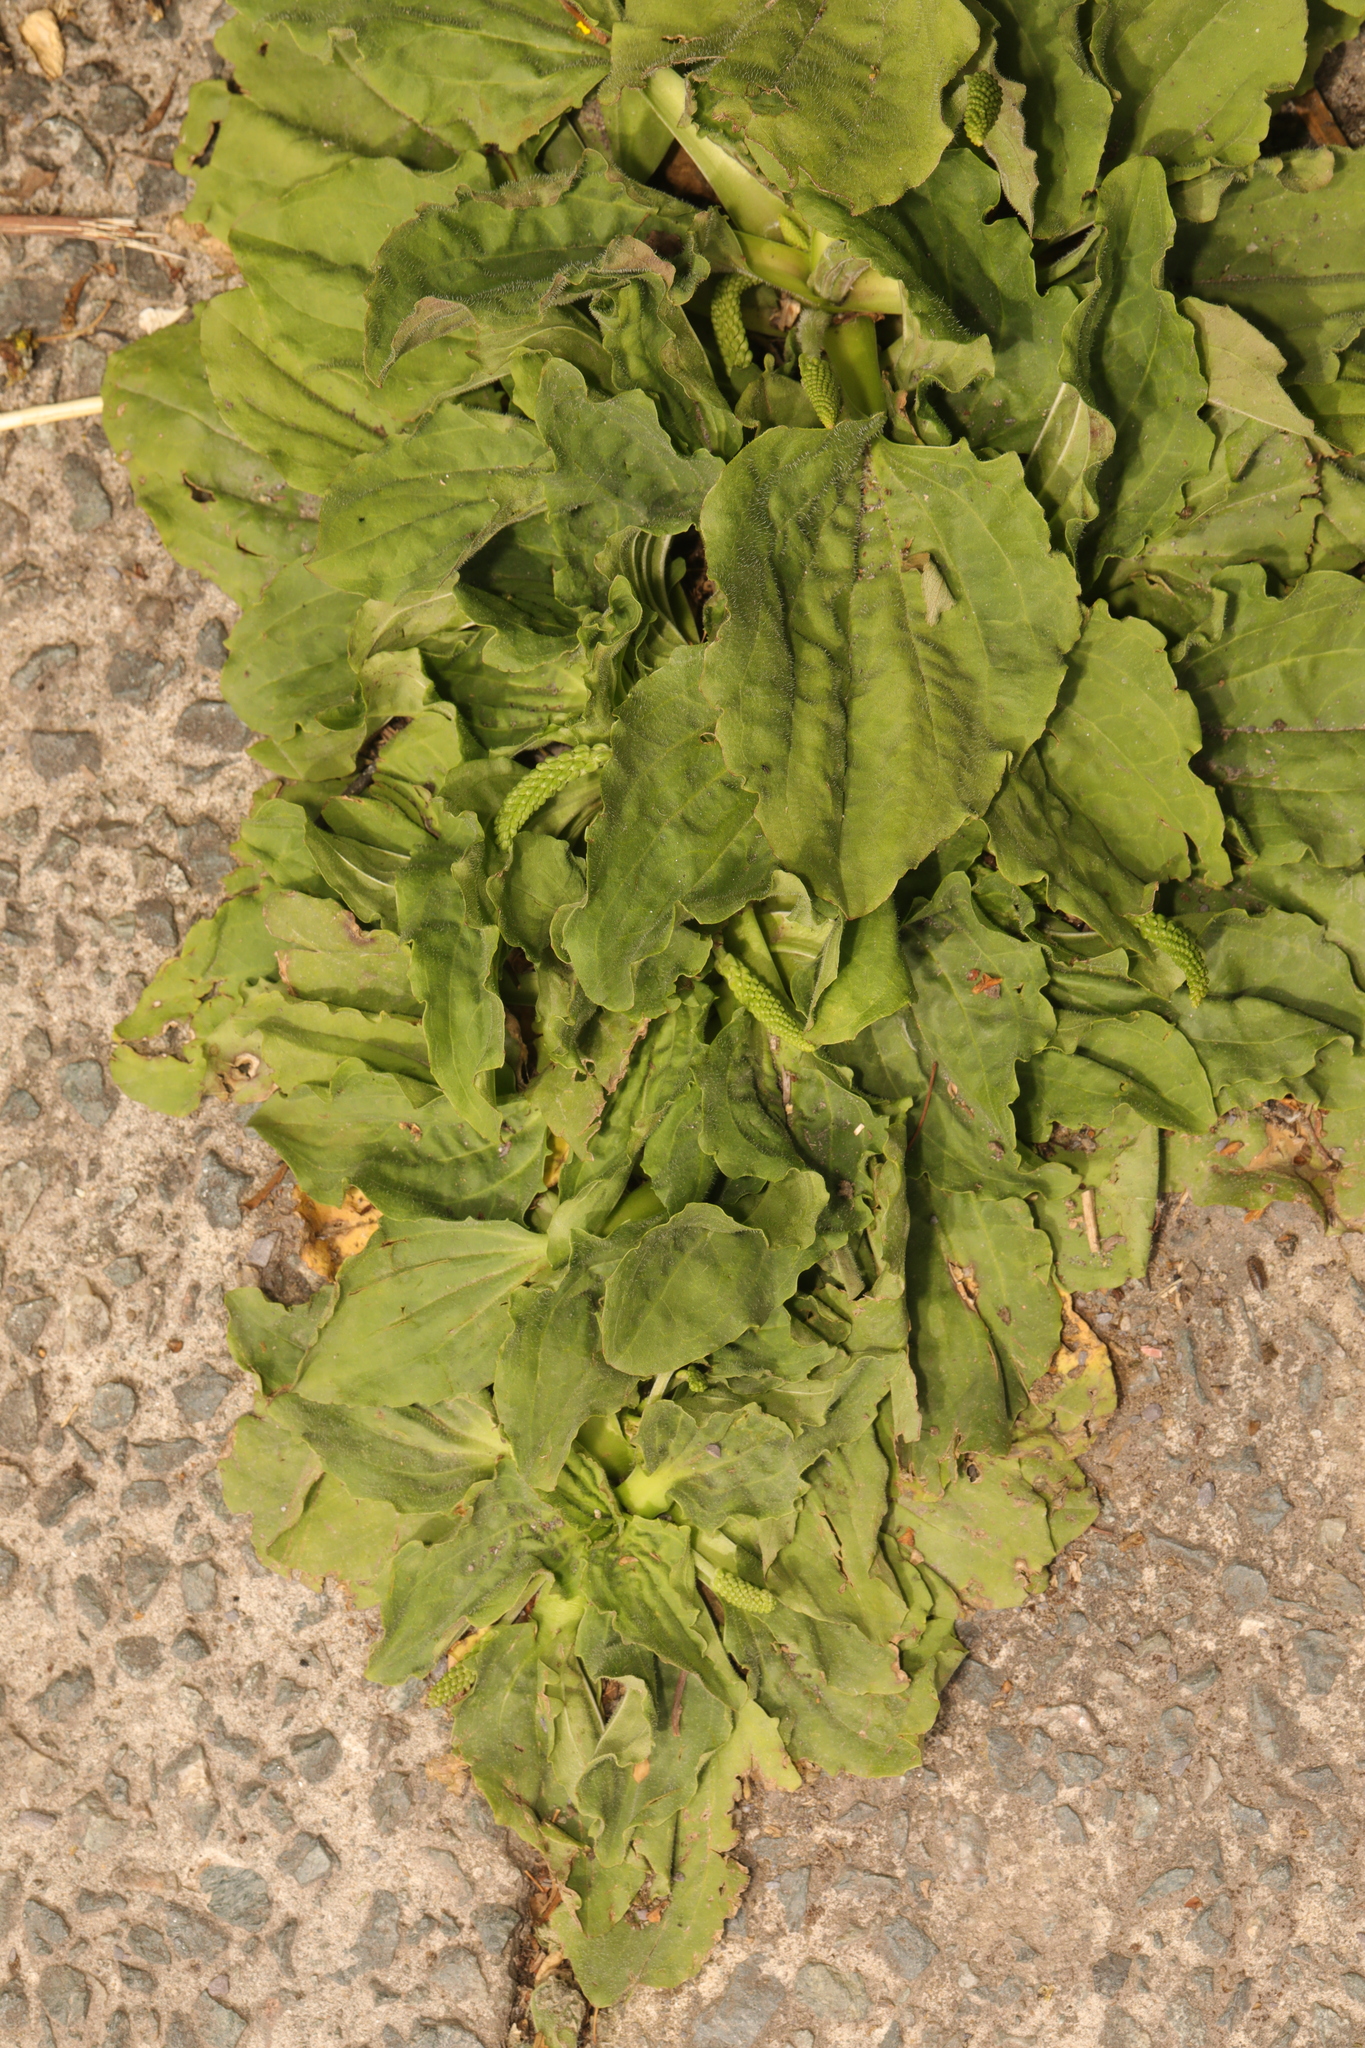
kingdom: Plantae
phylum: Tracheophyta
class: Magnoliopsida
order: Lamiales
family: Plantaginaceae
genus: Plantago
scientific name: Plantago major
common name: Common plantain
